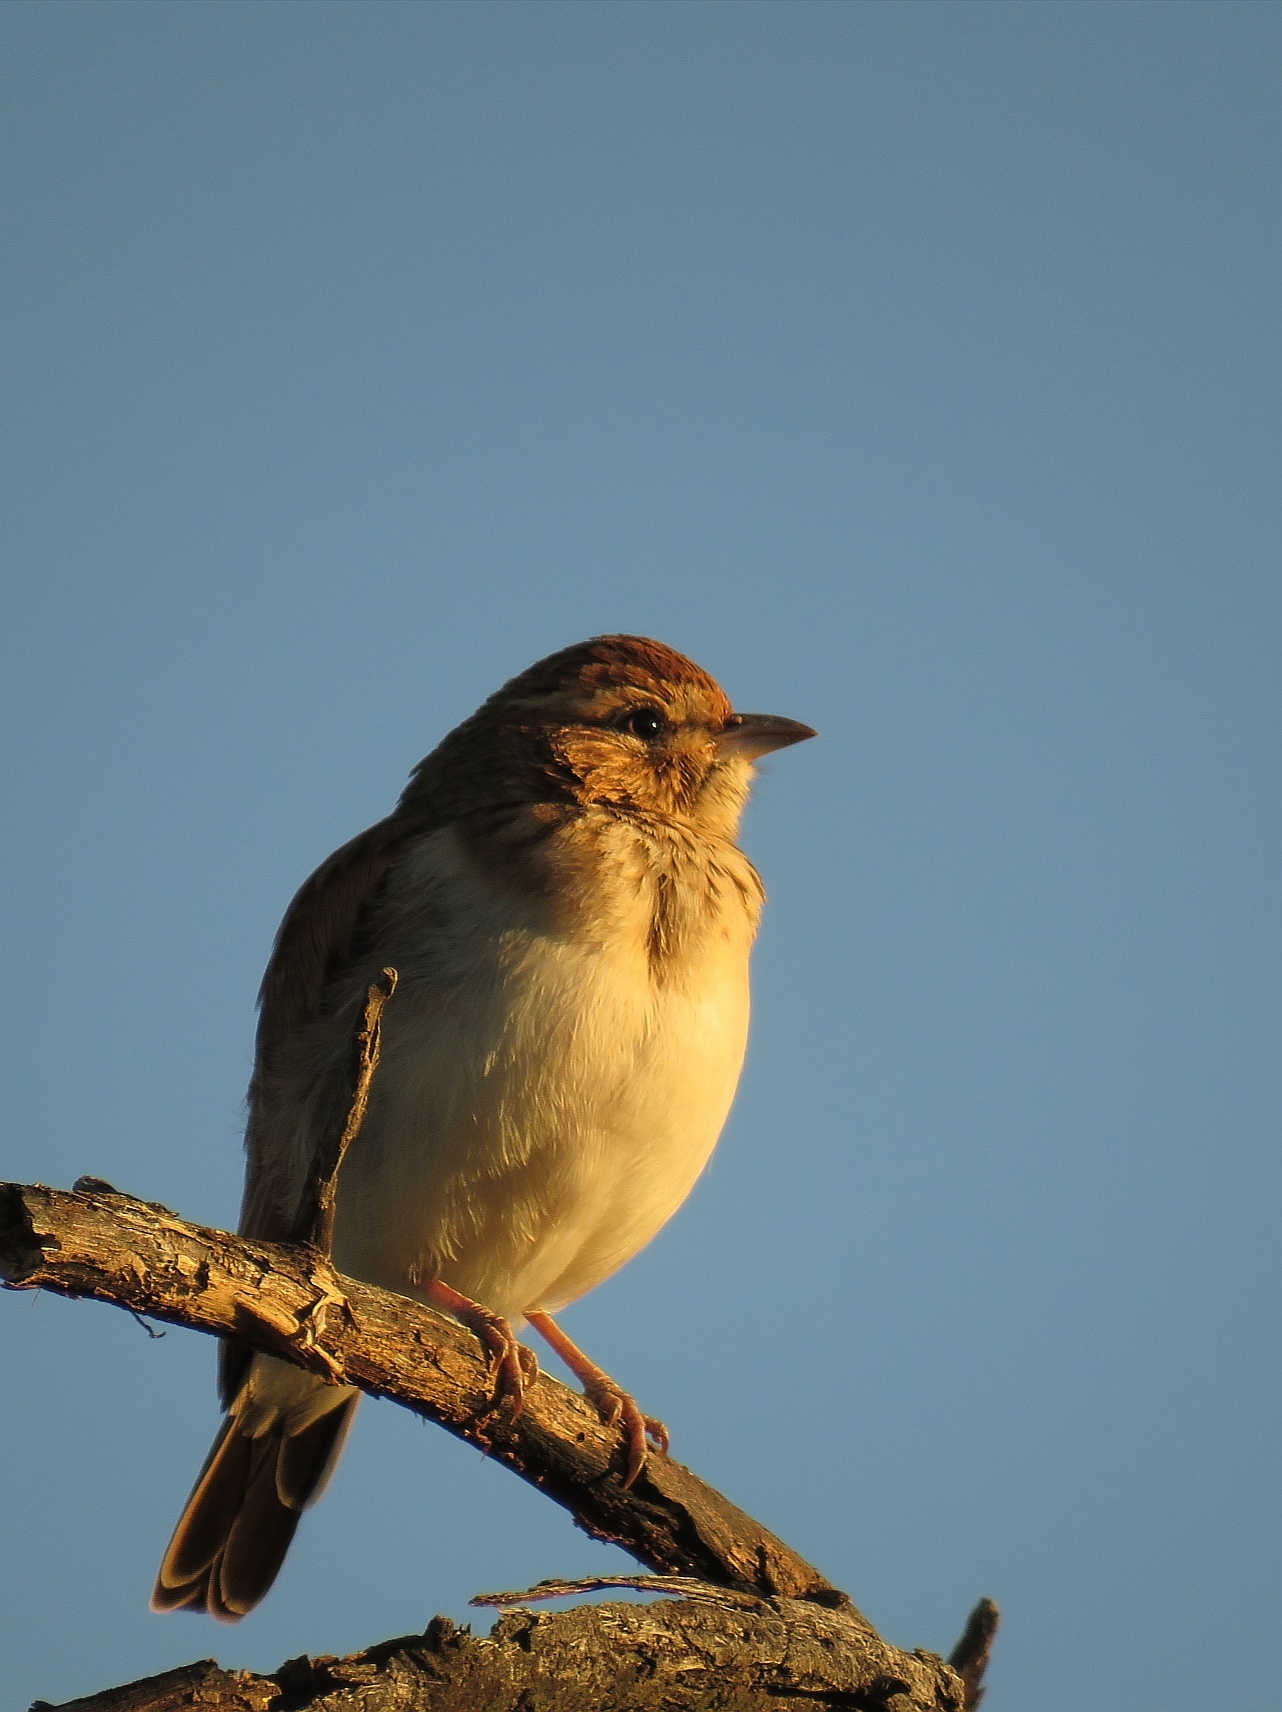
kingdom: Animalia
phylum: Chordata
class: Aves
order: Passeriformes
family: Alaudidae
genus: Calendulauda
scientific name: Calendulauda africanoides
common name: Fawn-colored lark
